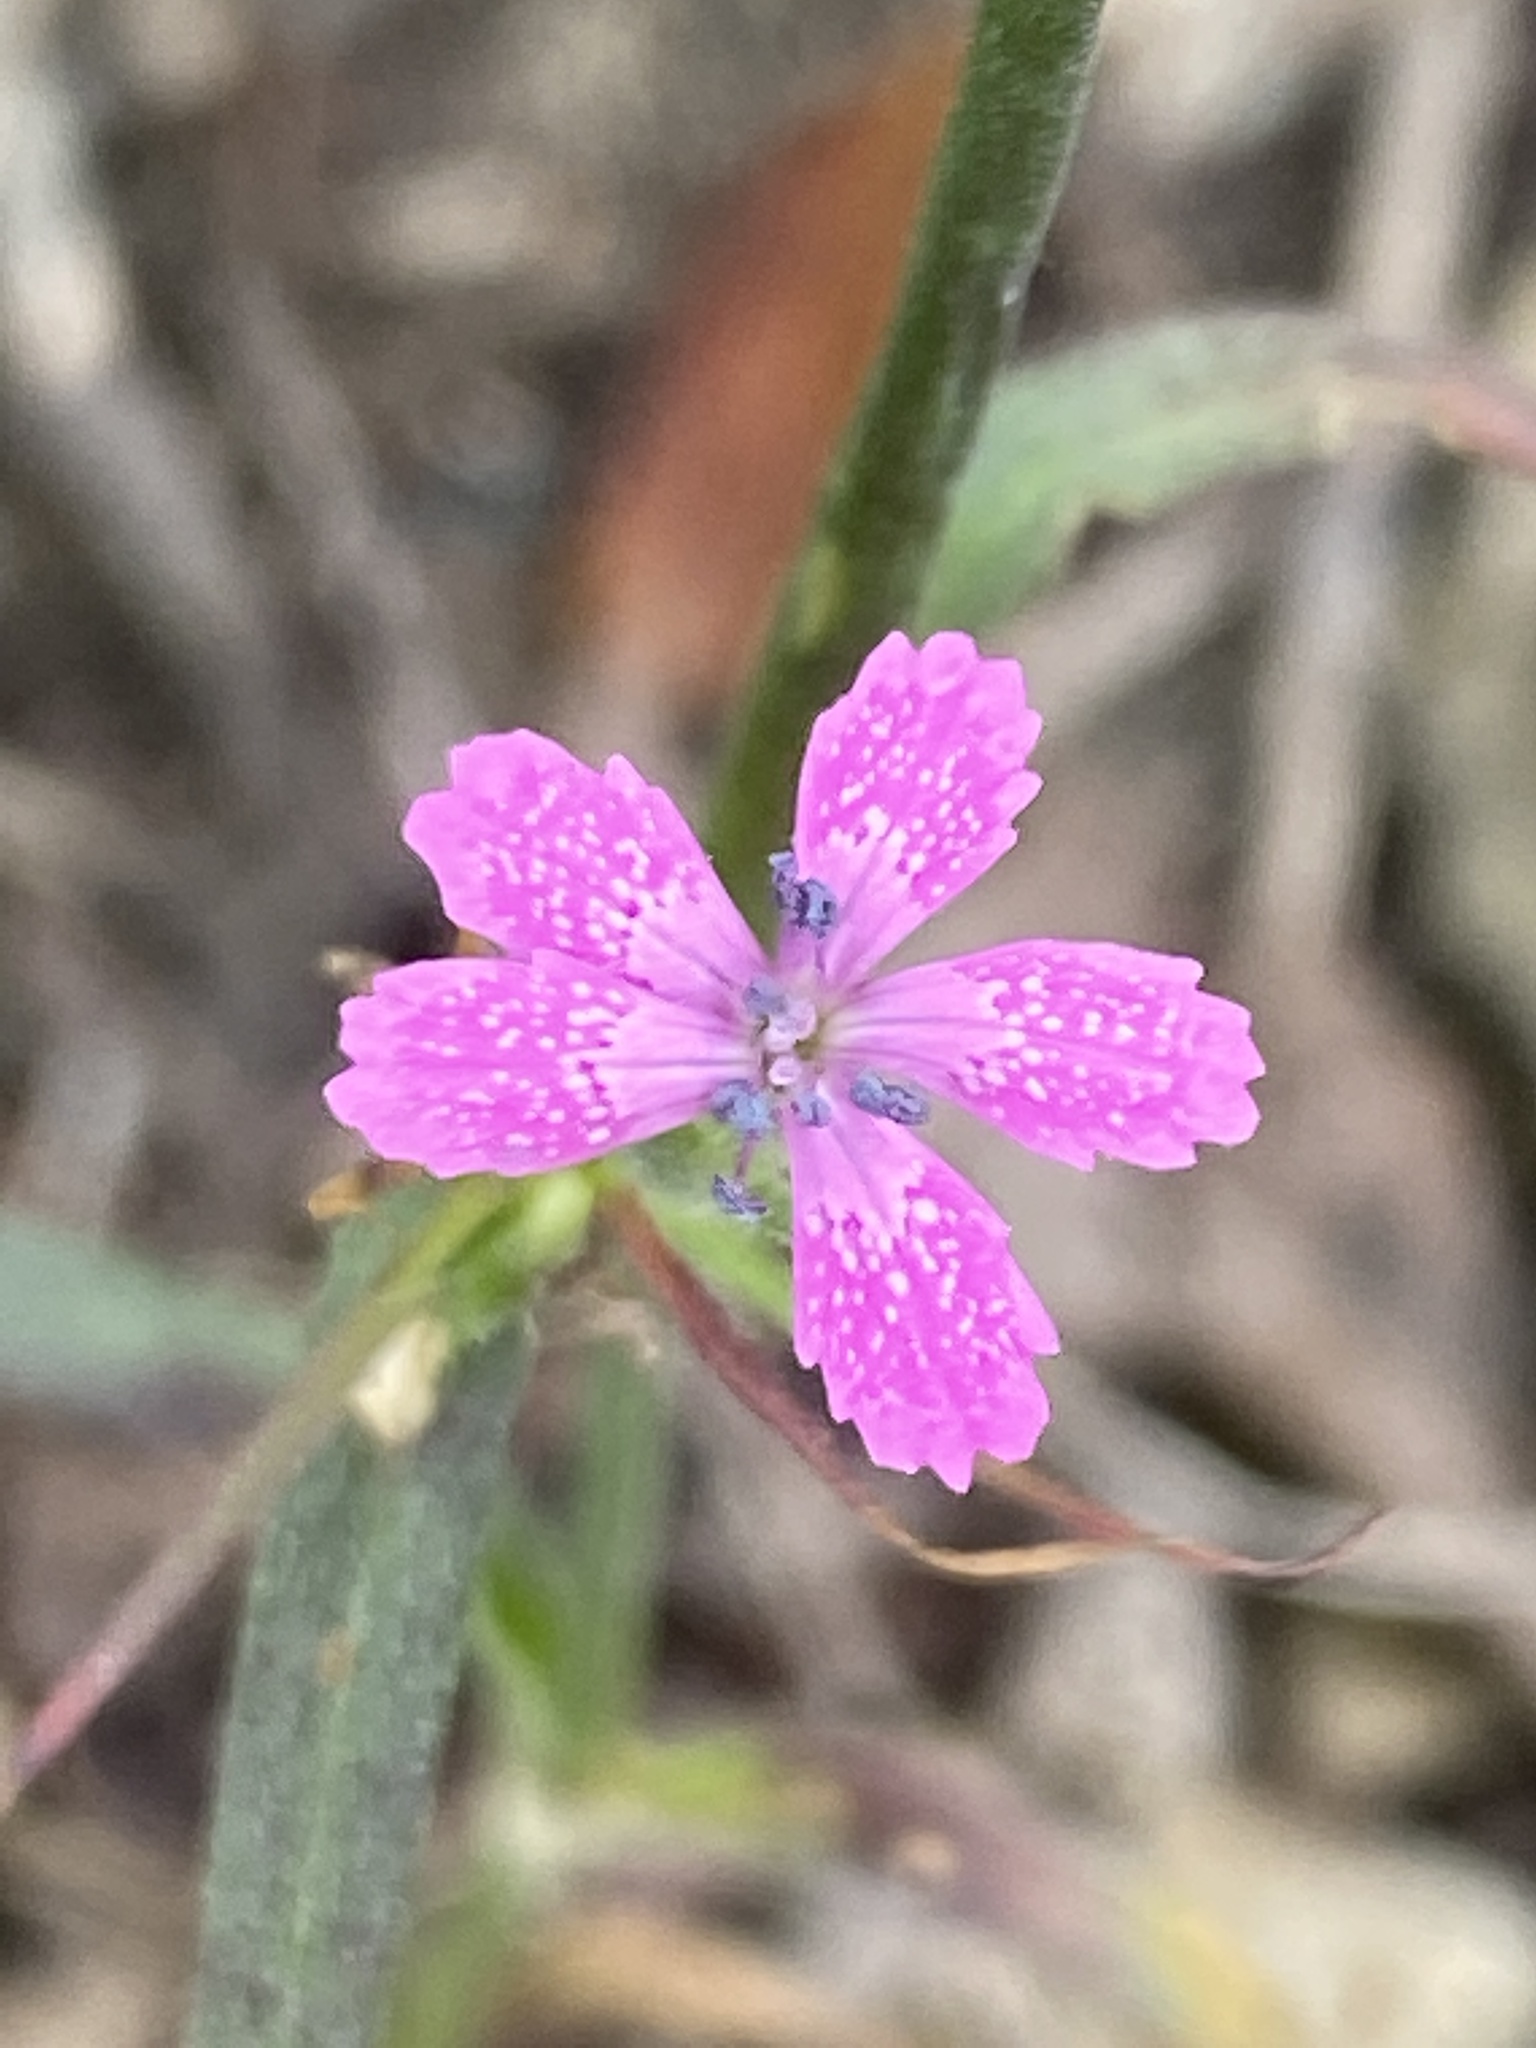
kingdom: Plantae
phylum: Tracheophyta
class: Magnoliopsida
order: Caryophyllales
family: Caryophyllaceae
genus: Dianthus
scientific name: Dianthus armeria
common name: Deptford pink
